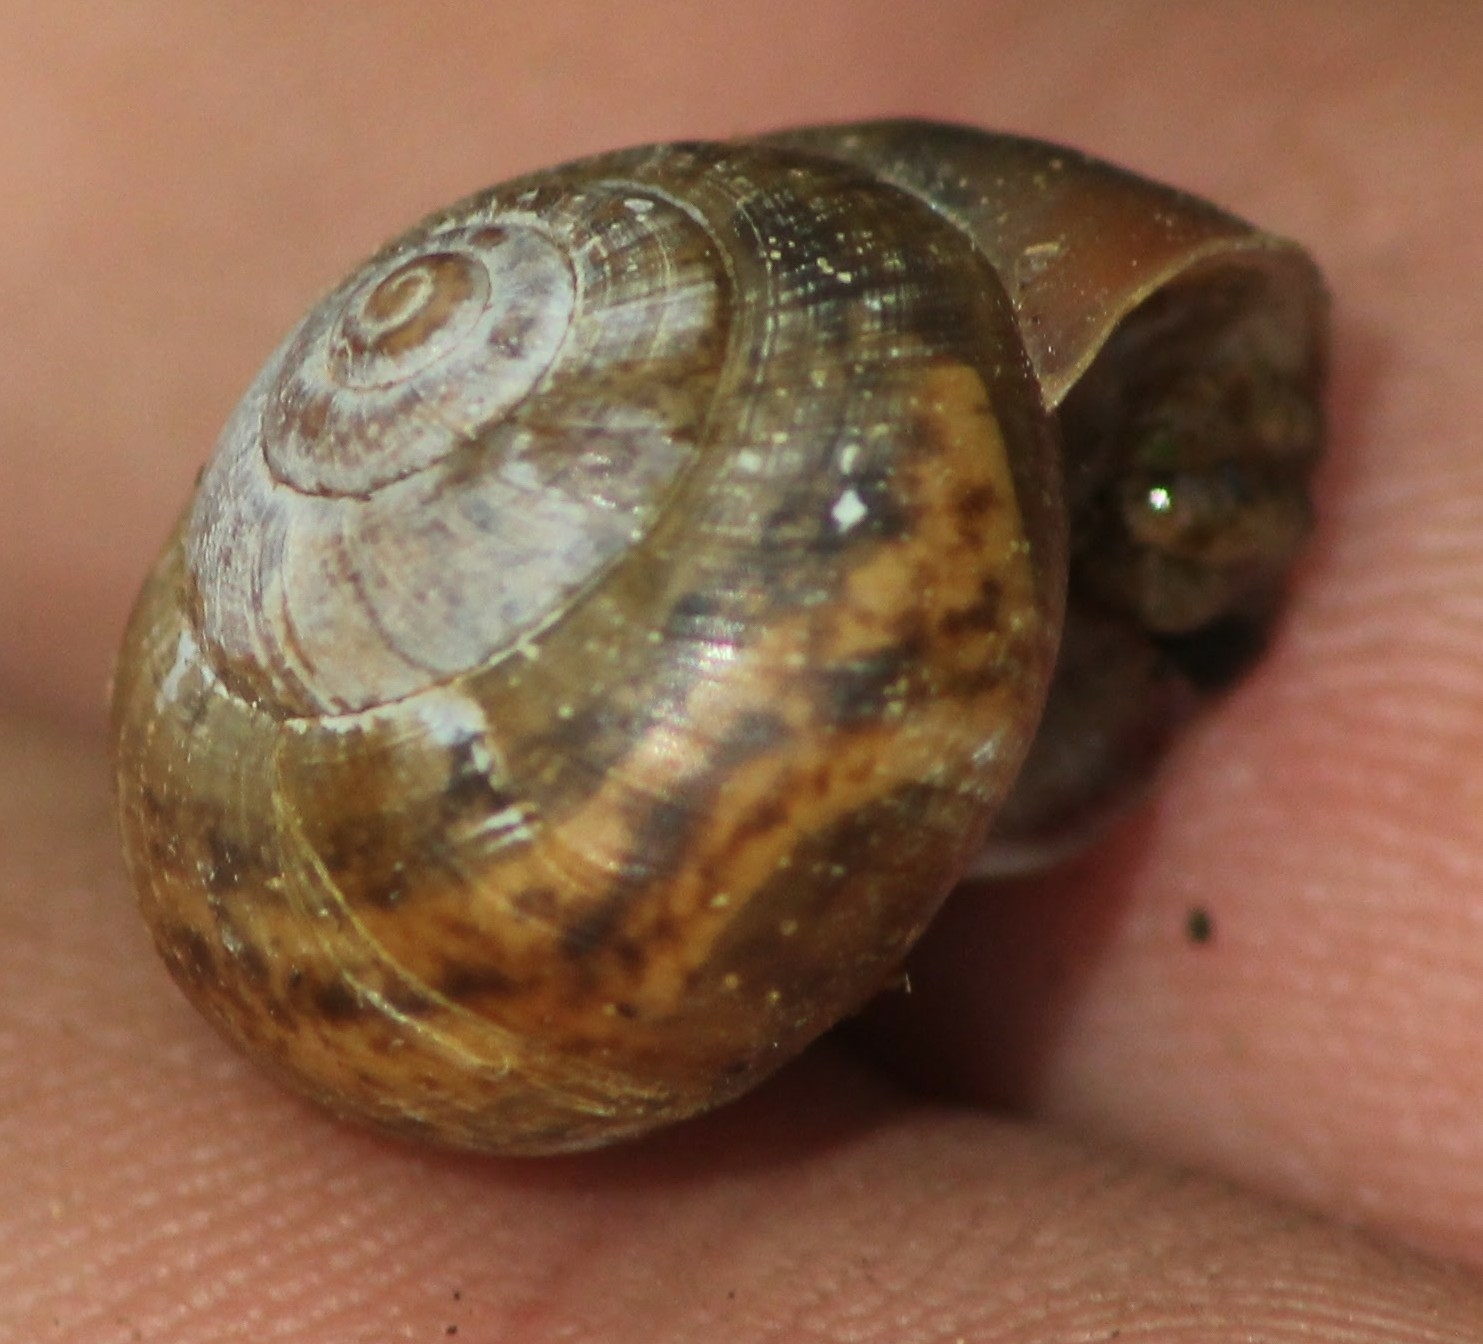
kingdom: Animalia
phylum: Mollusca
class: Gastropoda
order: Stylommatophora
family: Camaenidae
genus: Fruticicola
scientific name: Fruticicola fruticum
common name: Bush snail
